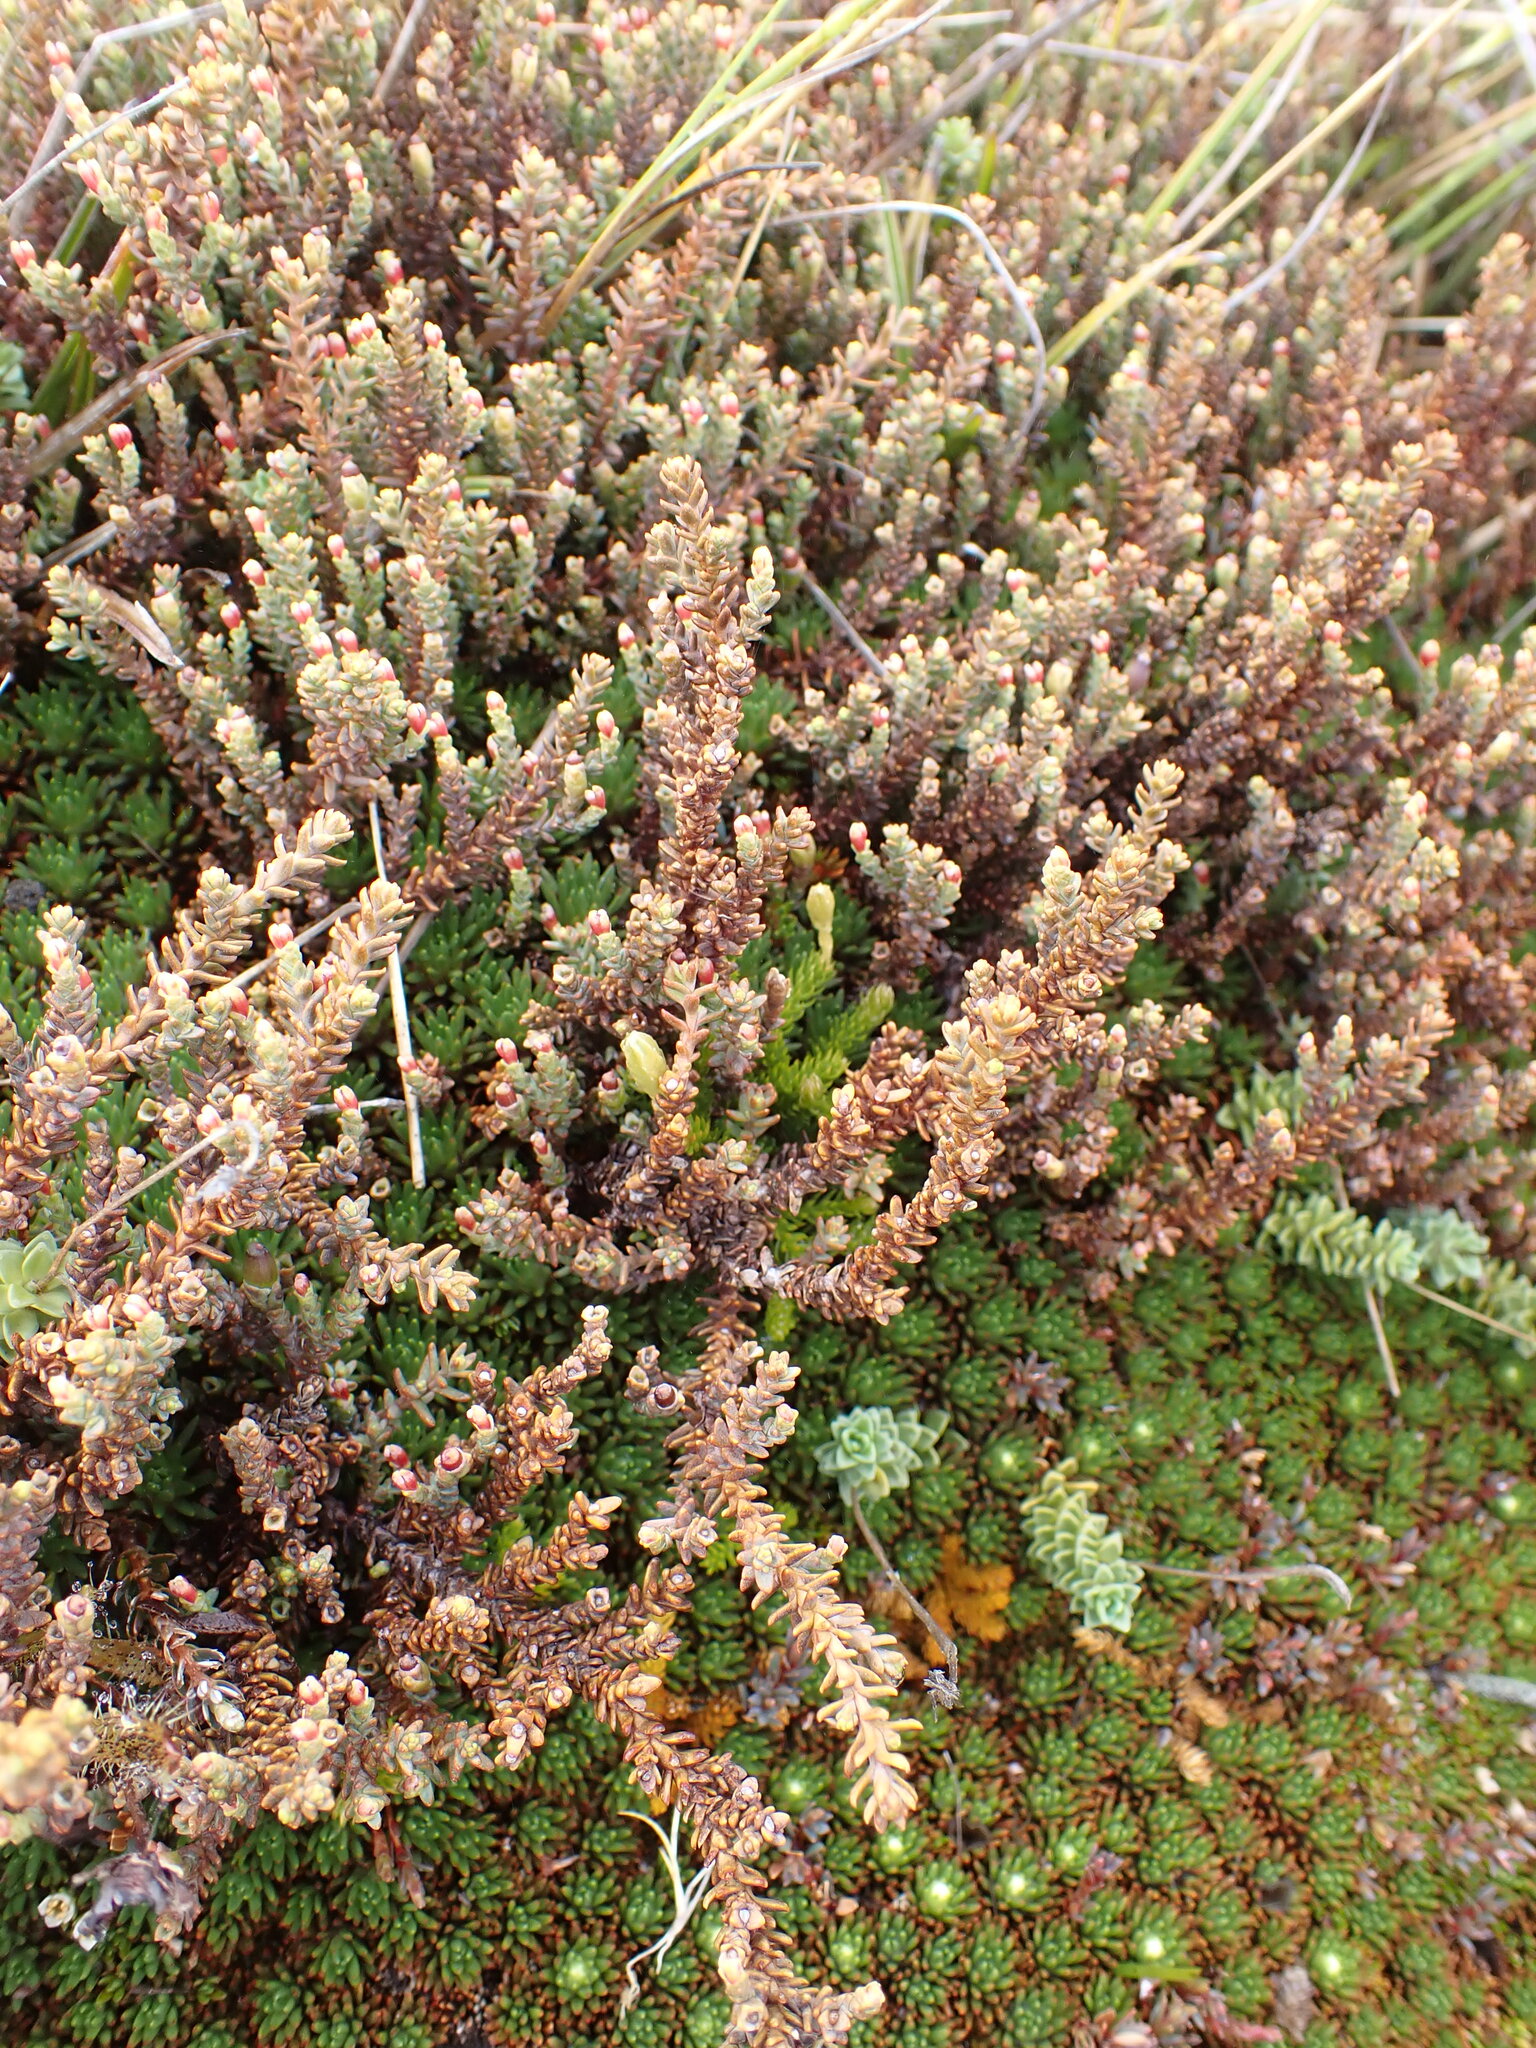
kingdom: Plantae
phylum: Tracheophyta
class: Pinopsida
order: Pinales
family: Podocarpaceae
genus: Lepidothamnus
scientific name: Lepidothamnus laxifolius
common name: Pygmy pine
